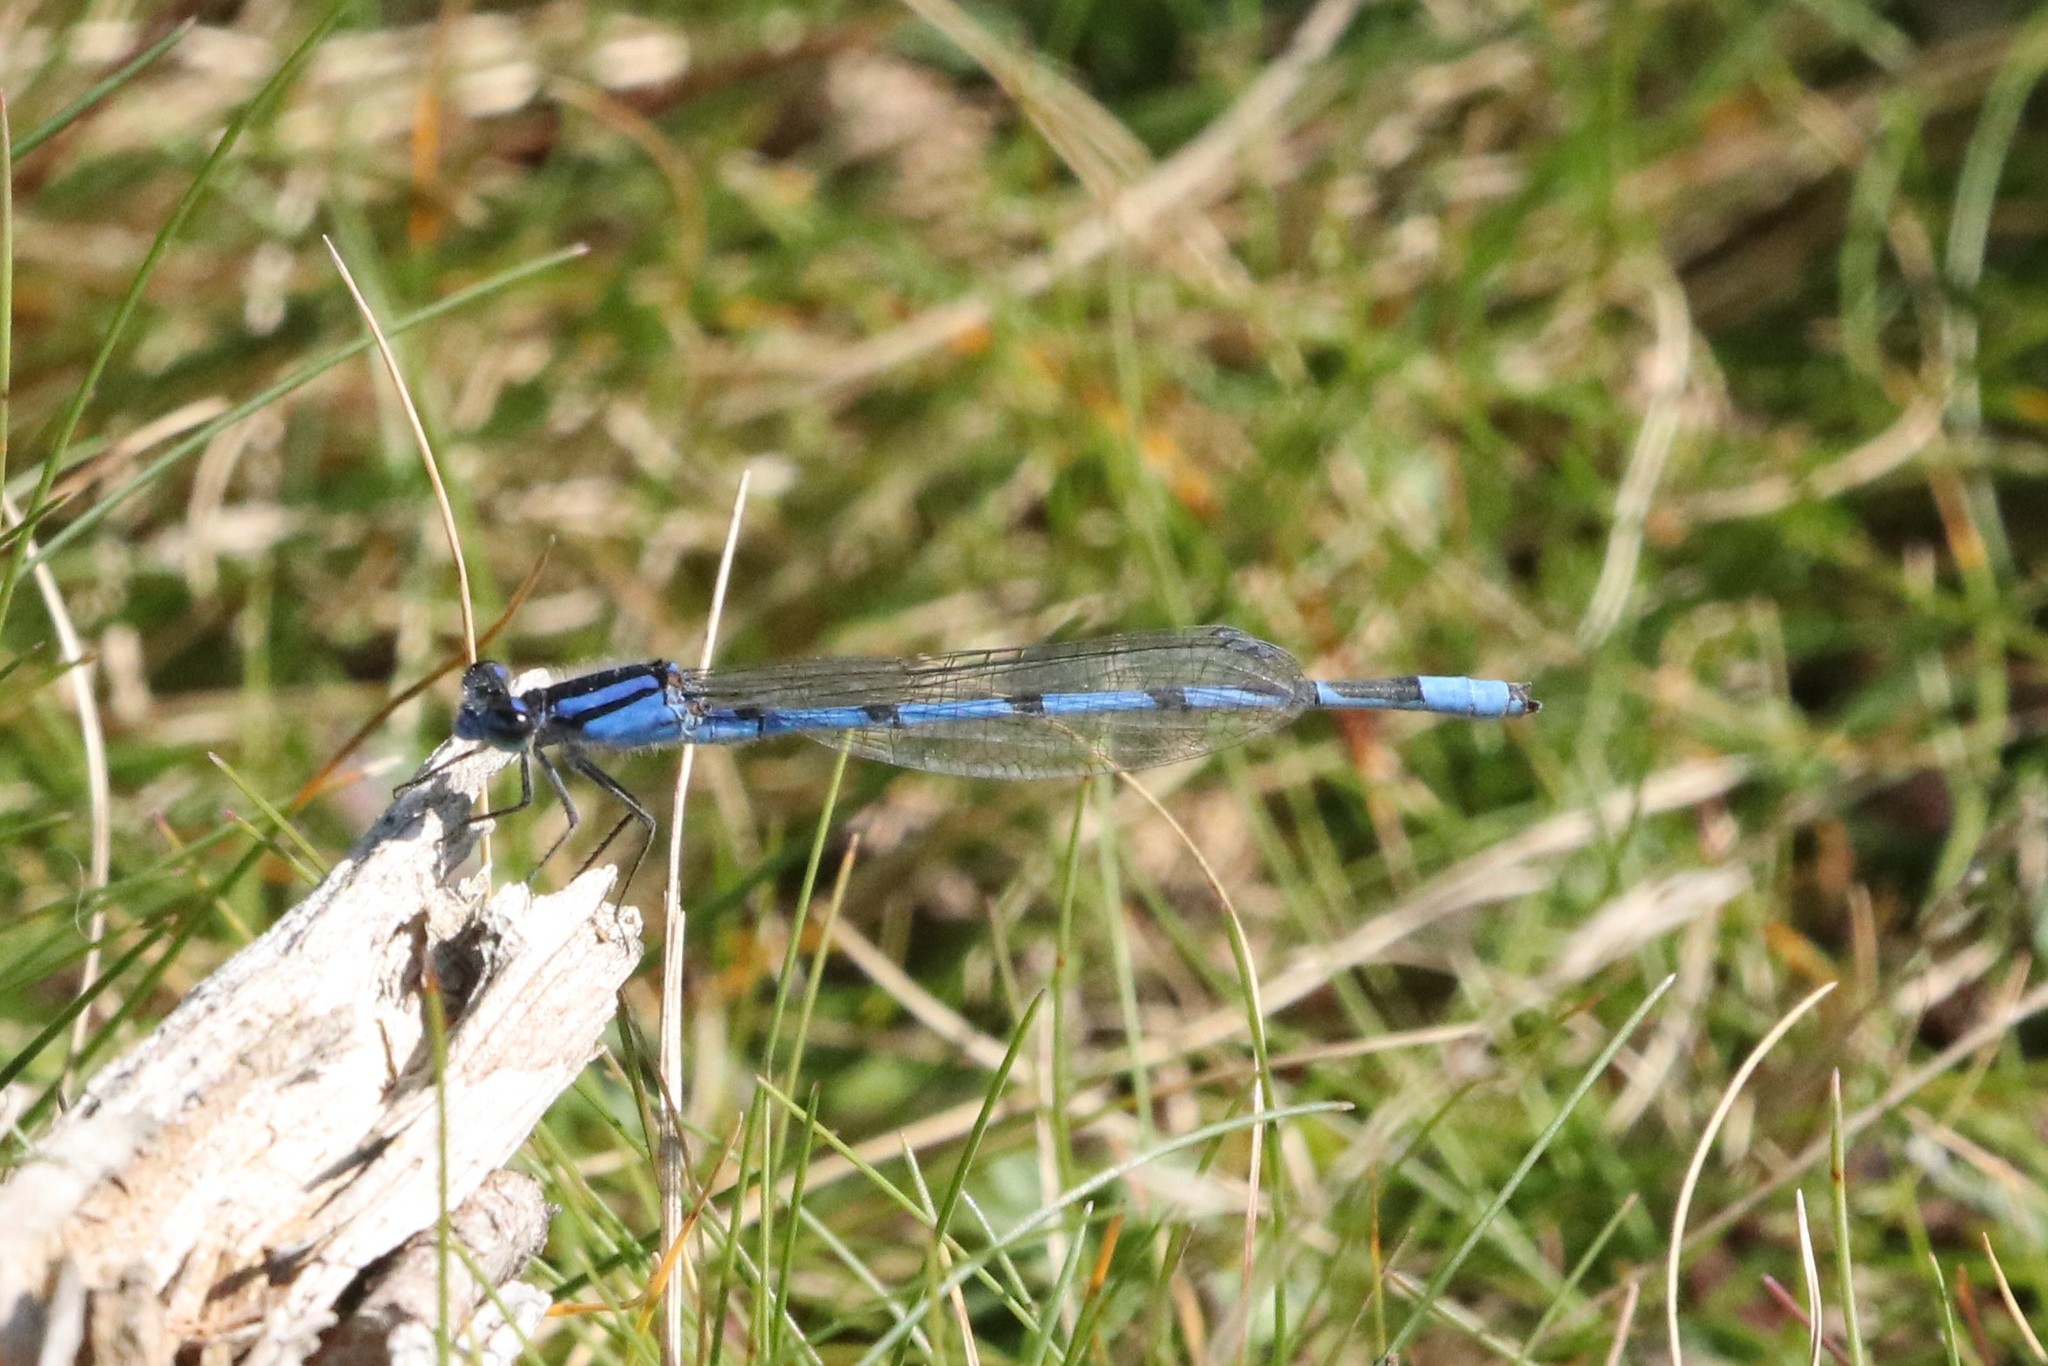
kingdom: Animalia
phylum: Arthropoda
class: Insecta
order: Odonata
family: Coenagrionidae
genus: Enallagma
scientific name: Enallagma civile
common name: Damselfly
